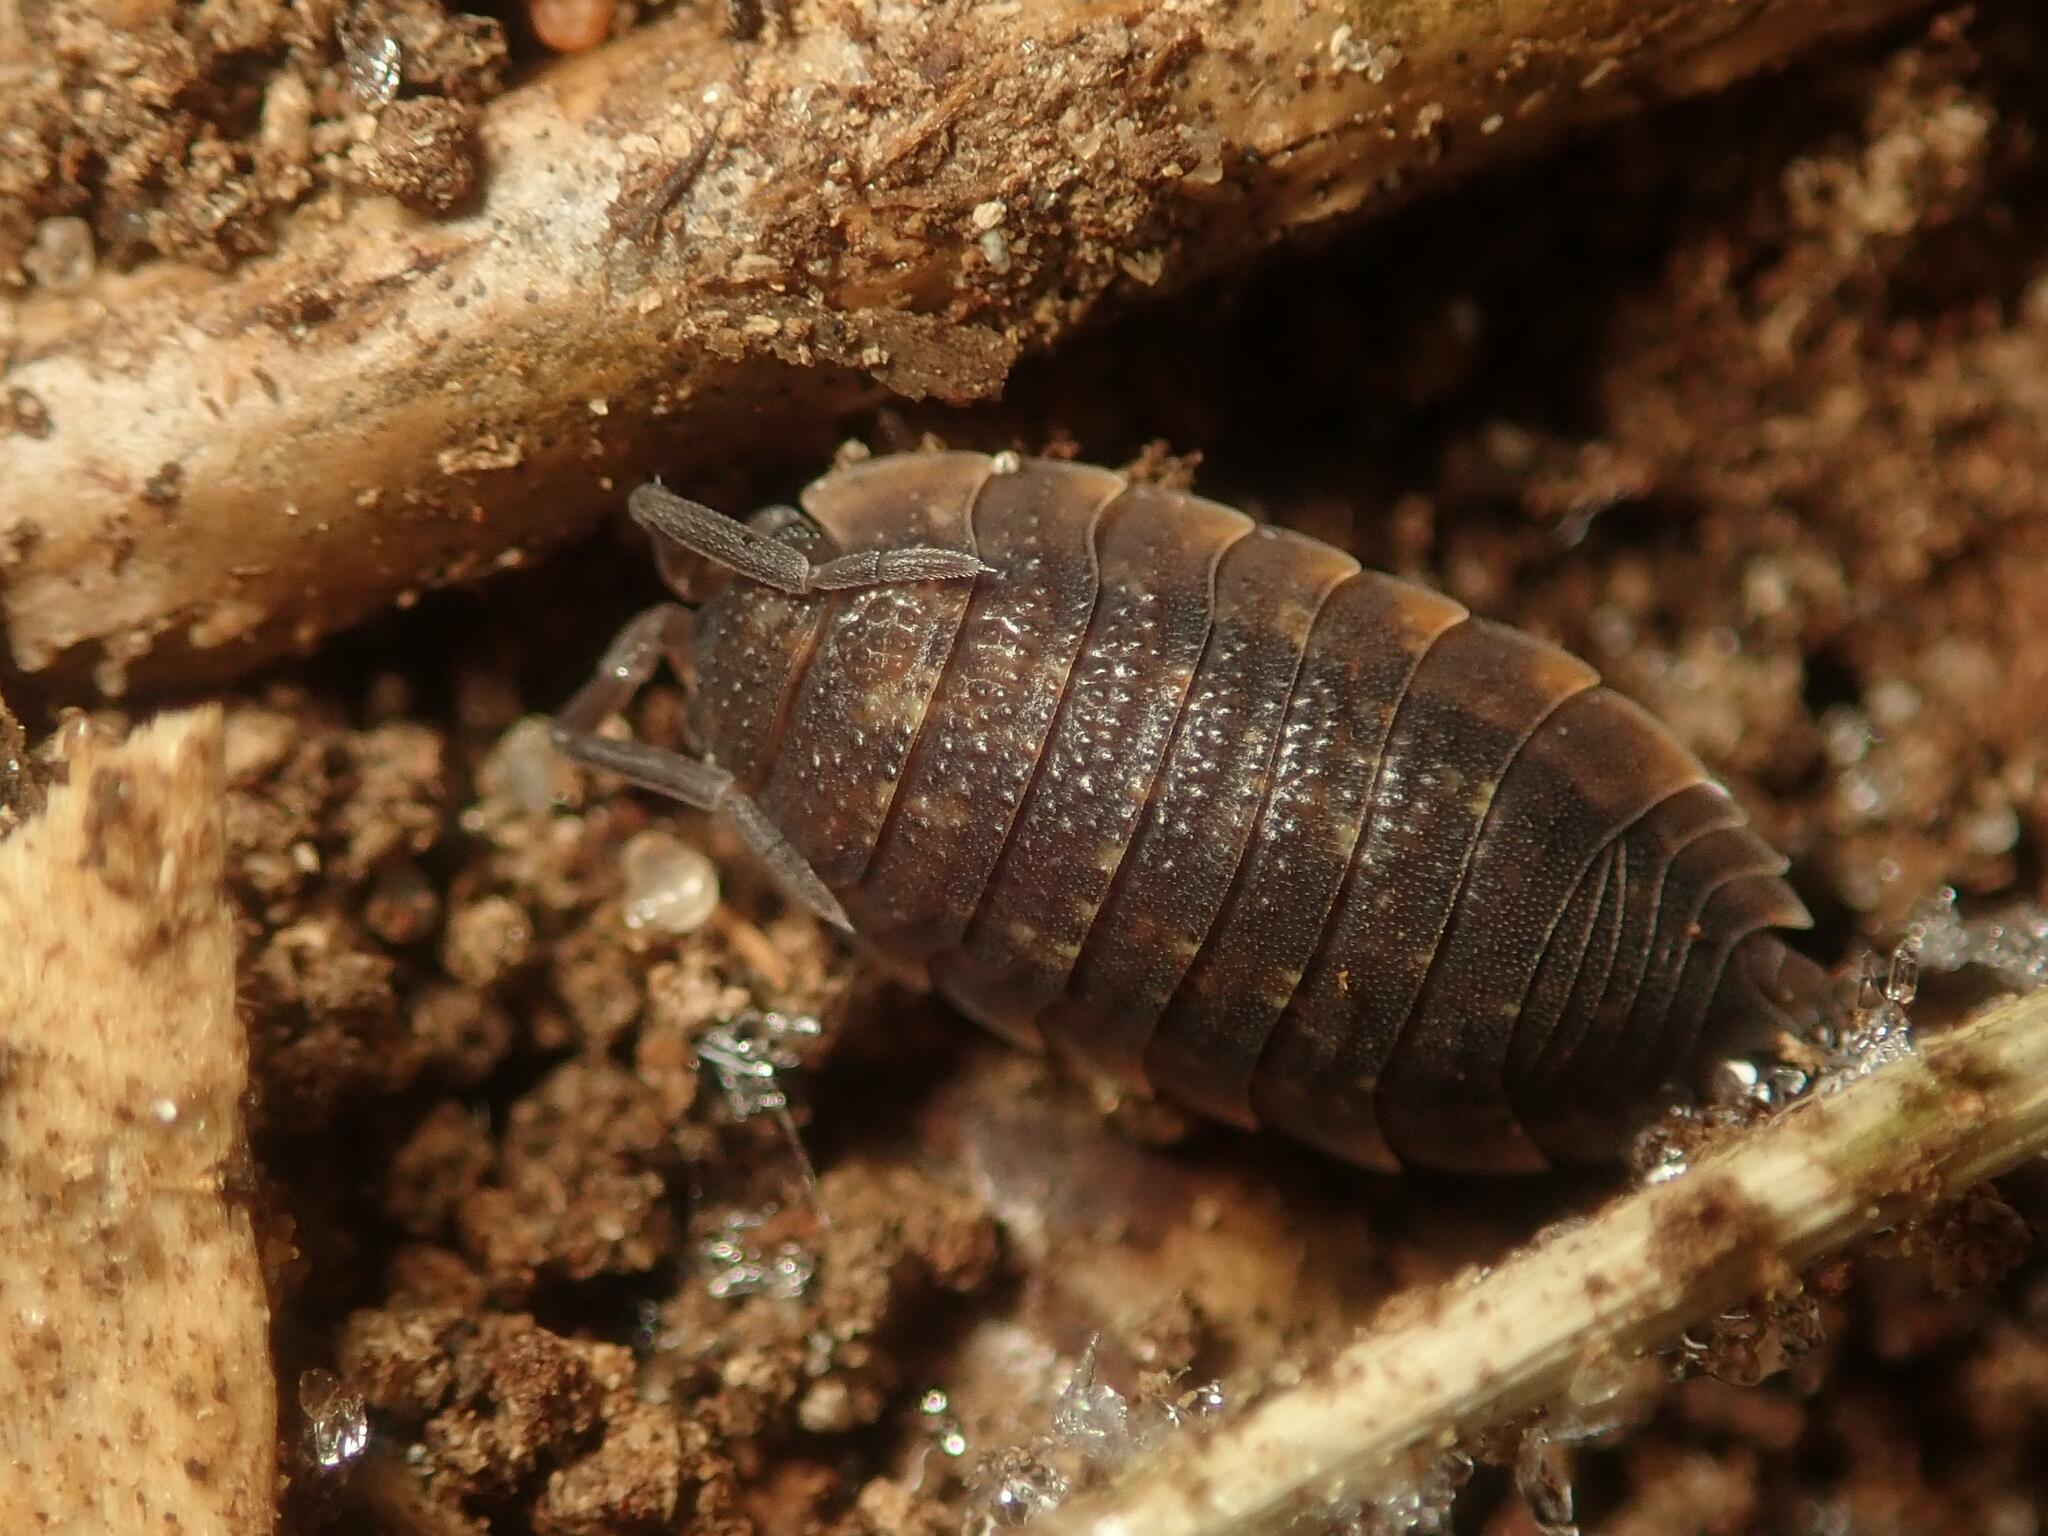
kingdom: Animalia
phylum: Arthropoda
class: Malacostraca
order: Isopoda
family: Porcellionidae
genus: Porcellio
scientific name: Porcellio scaber
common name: Common rough woodlouse
